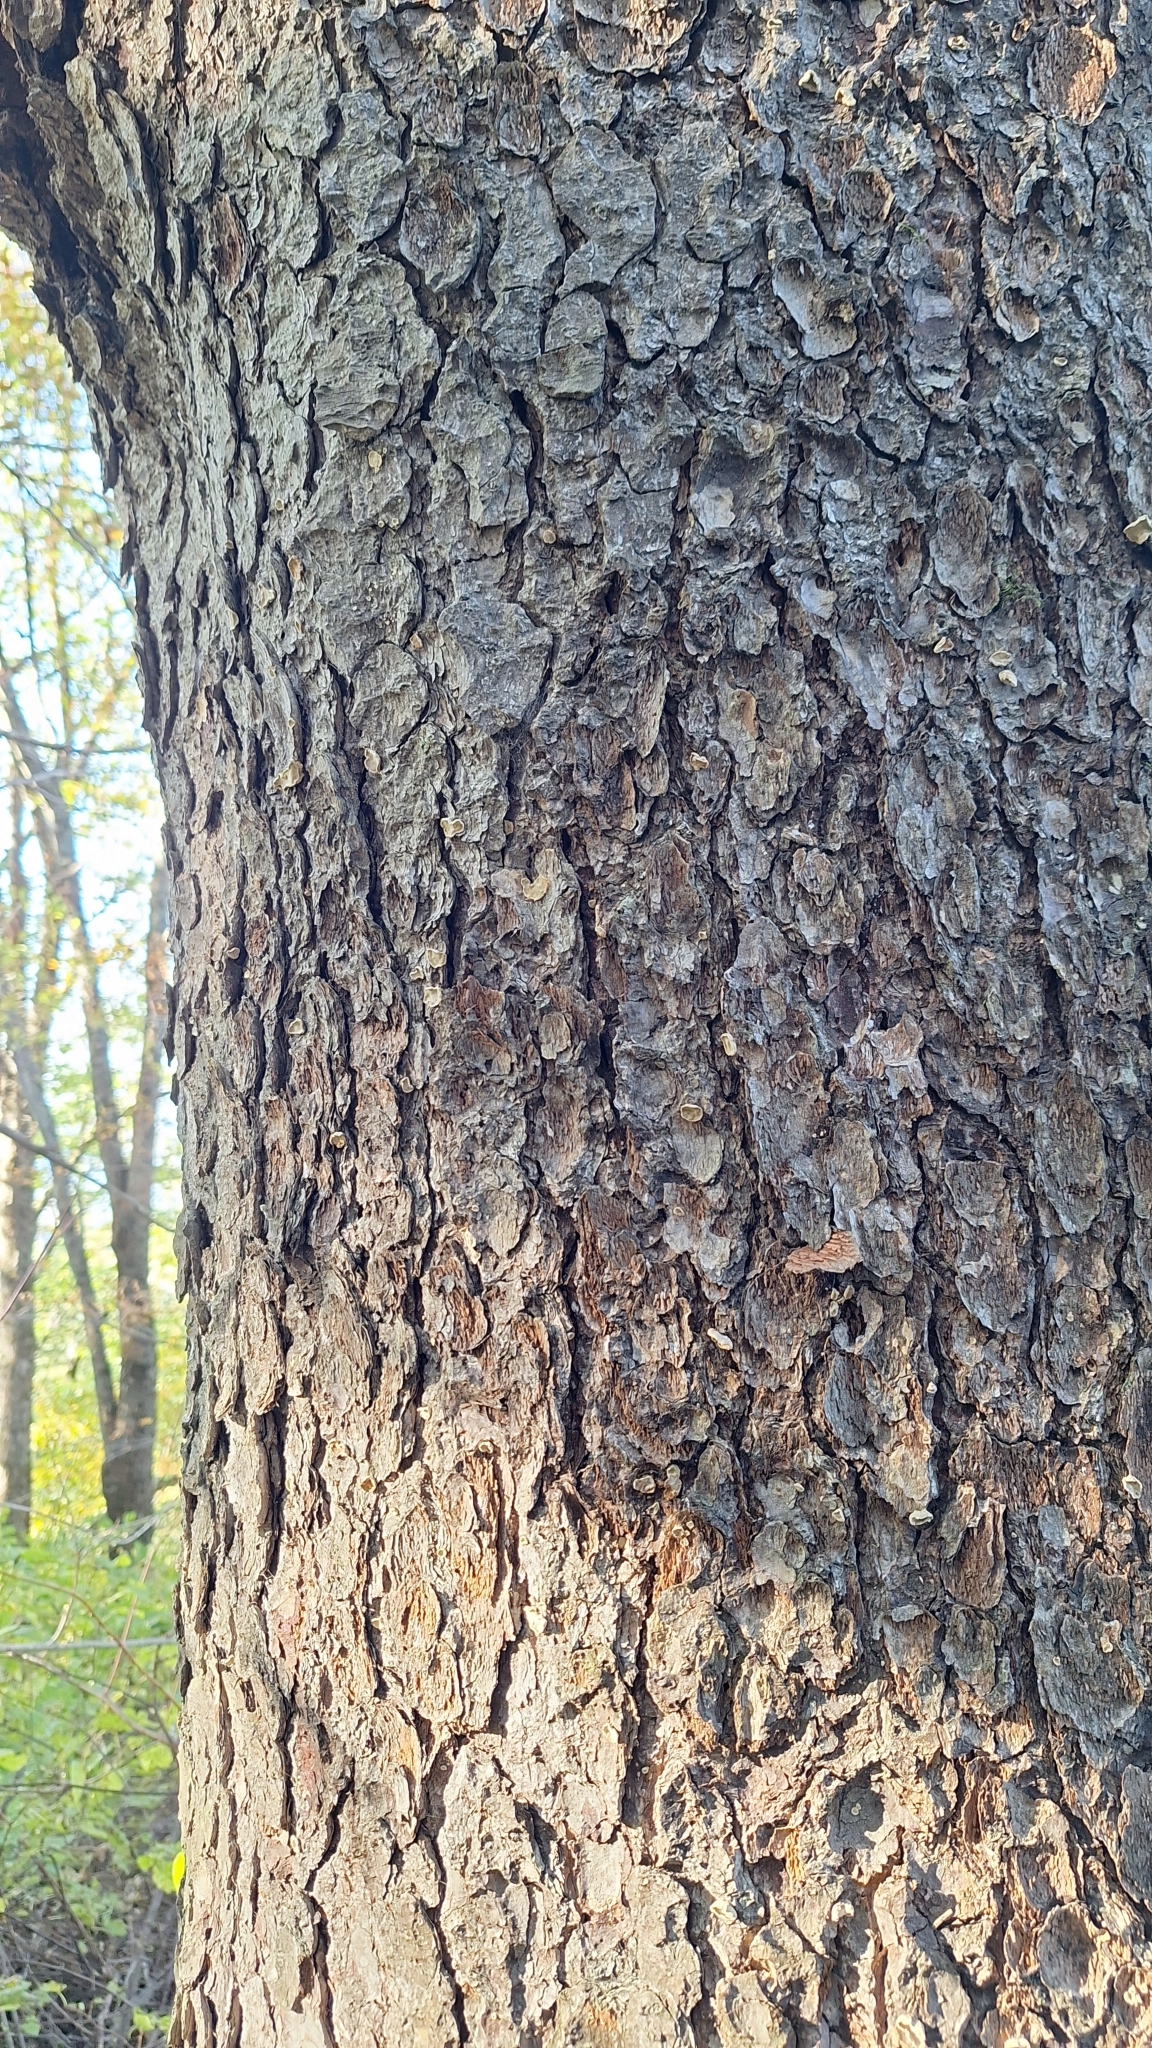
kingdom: Plantae
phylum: Tracheophyta
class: Pinopsida
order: Pinales
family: Pinaceae
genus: Picea
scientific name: Picea jezoensis
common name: Yeddo spruce
